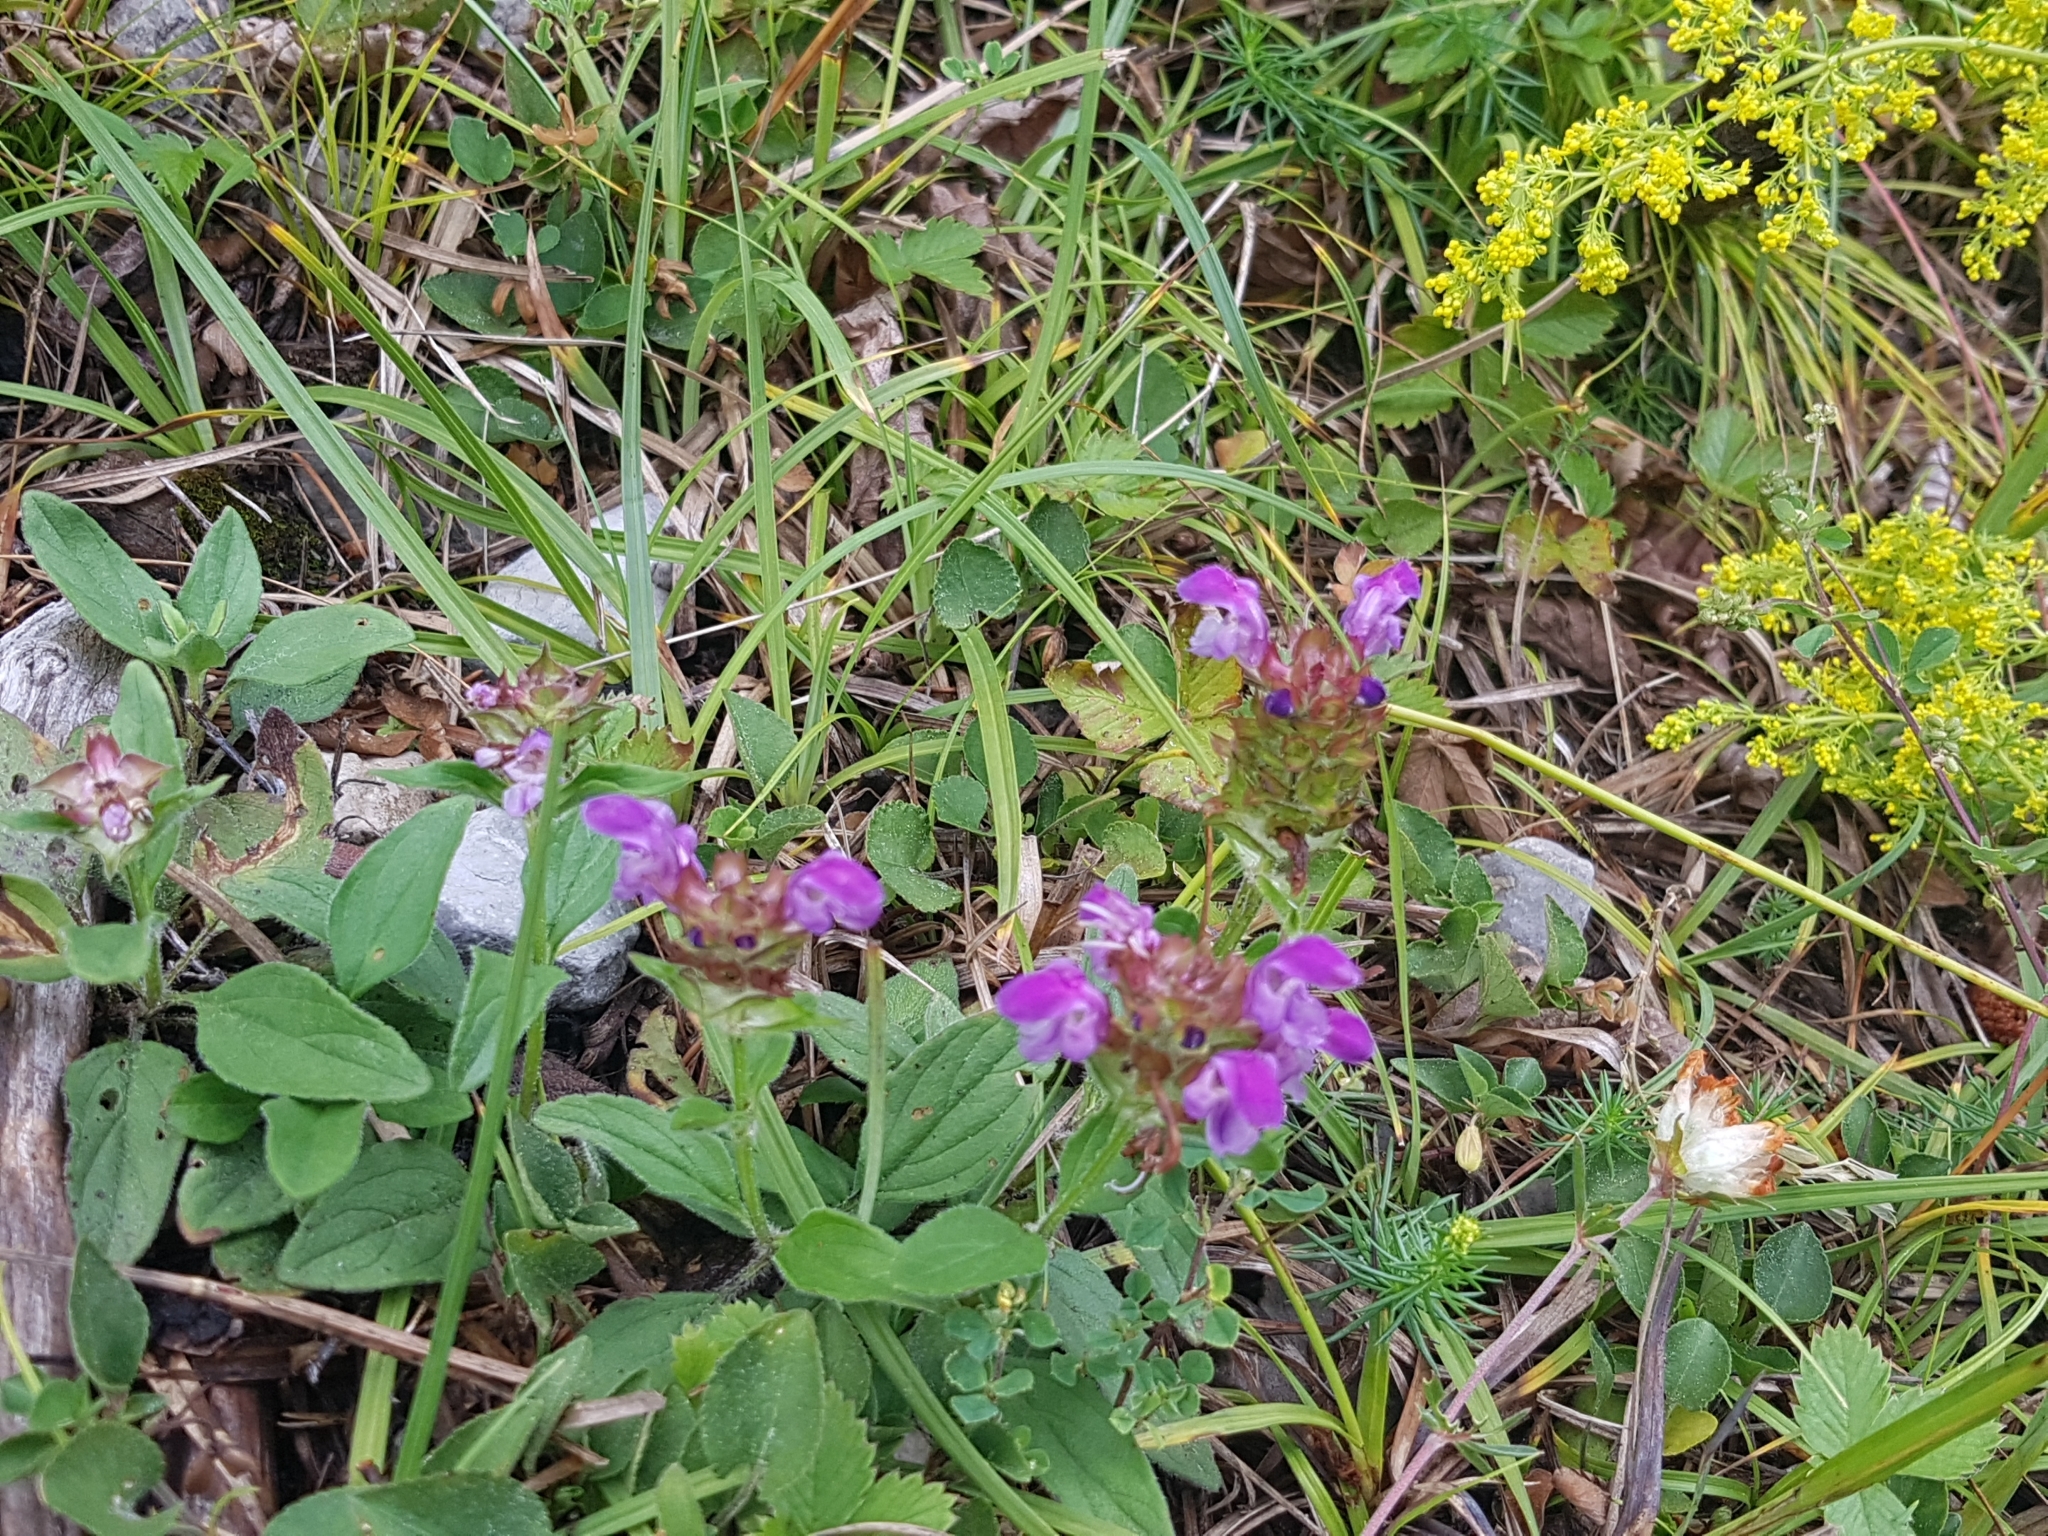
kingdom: Plantae
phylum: Tracheophyta
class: Magnoliopsida
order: Lamiales
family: Lamiaceae
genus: Prunella
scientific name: Prunella grandiflora
